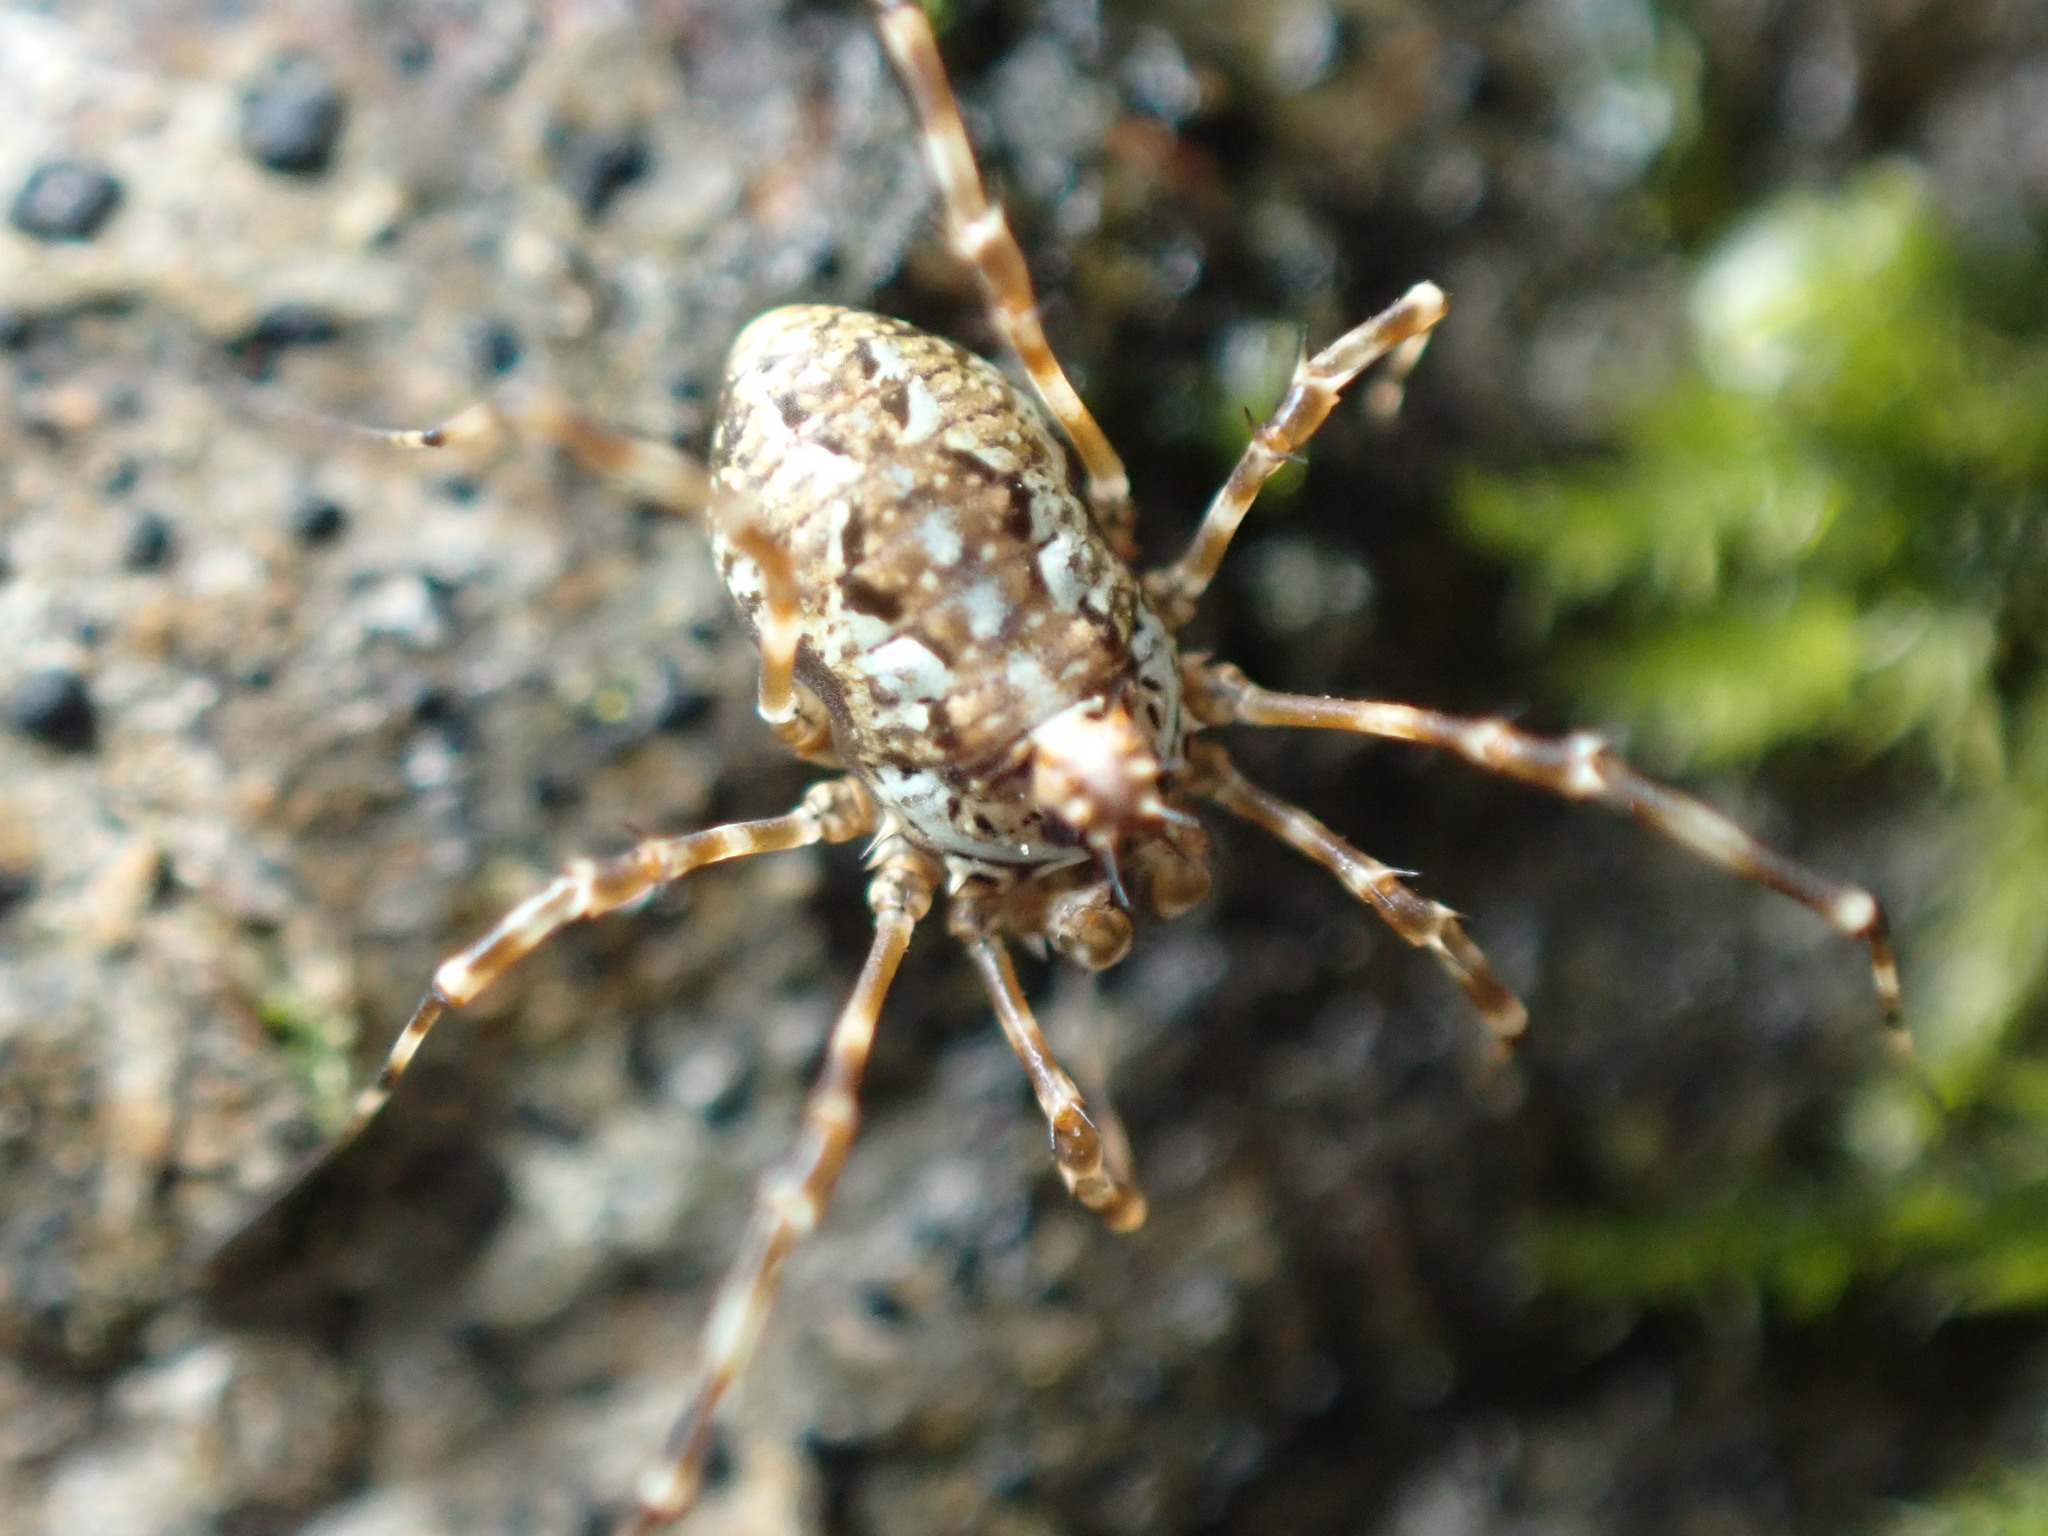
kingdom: Animalia
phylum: Arthropoda
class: Arachnida
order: Opiliones
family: Phalangiidae
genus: Megabunus
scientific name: Megabunus diadema
